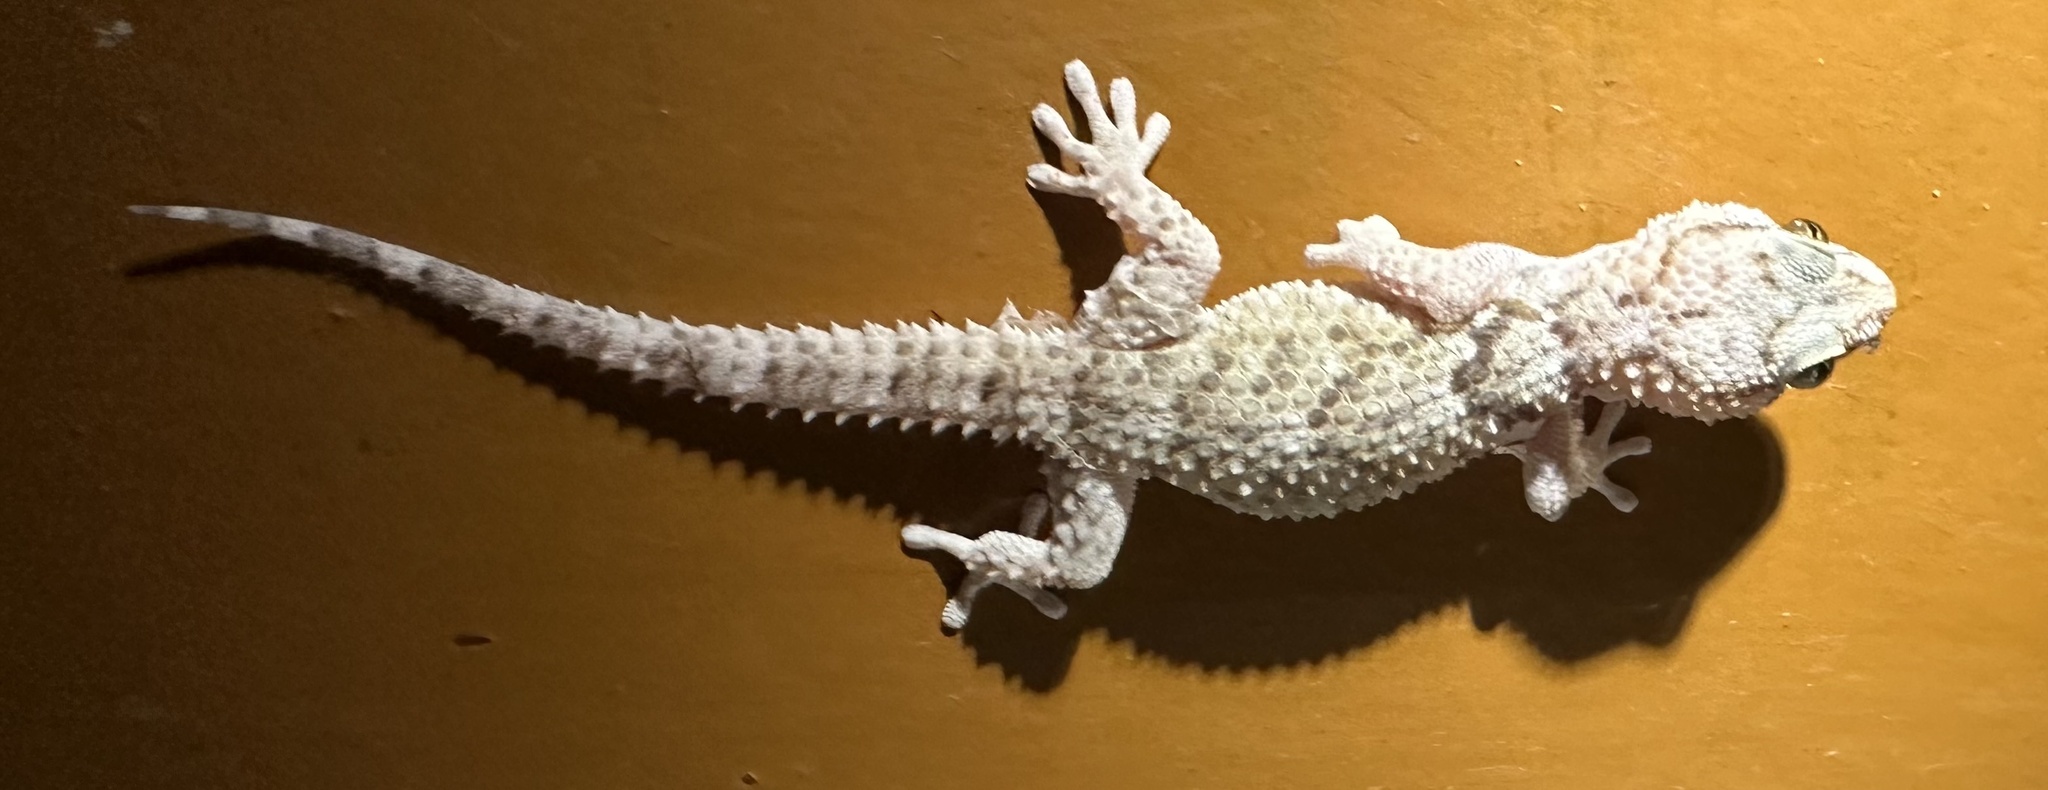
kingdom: Animalia
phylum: Chordata
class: Squamata
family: Gekkonidae
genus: Chondrodactylus
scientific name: Chondrodactylus laevigatus
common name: Fischer's thick-toed gecko
